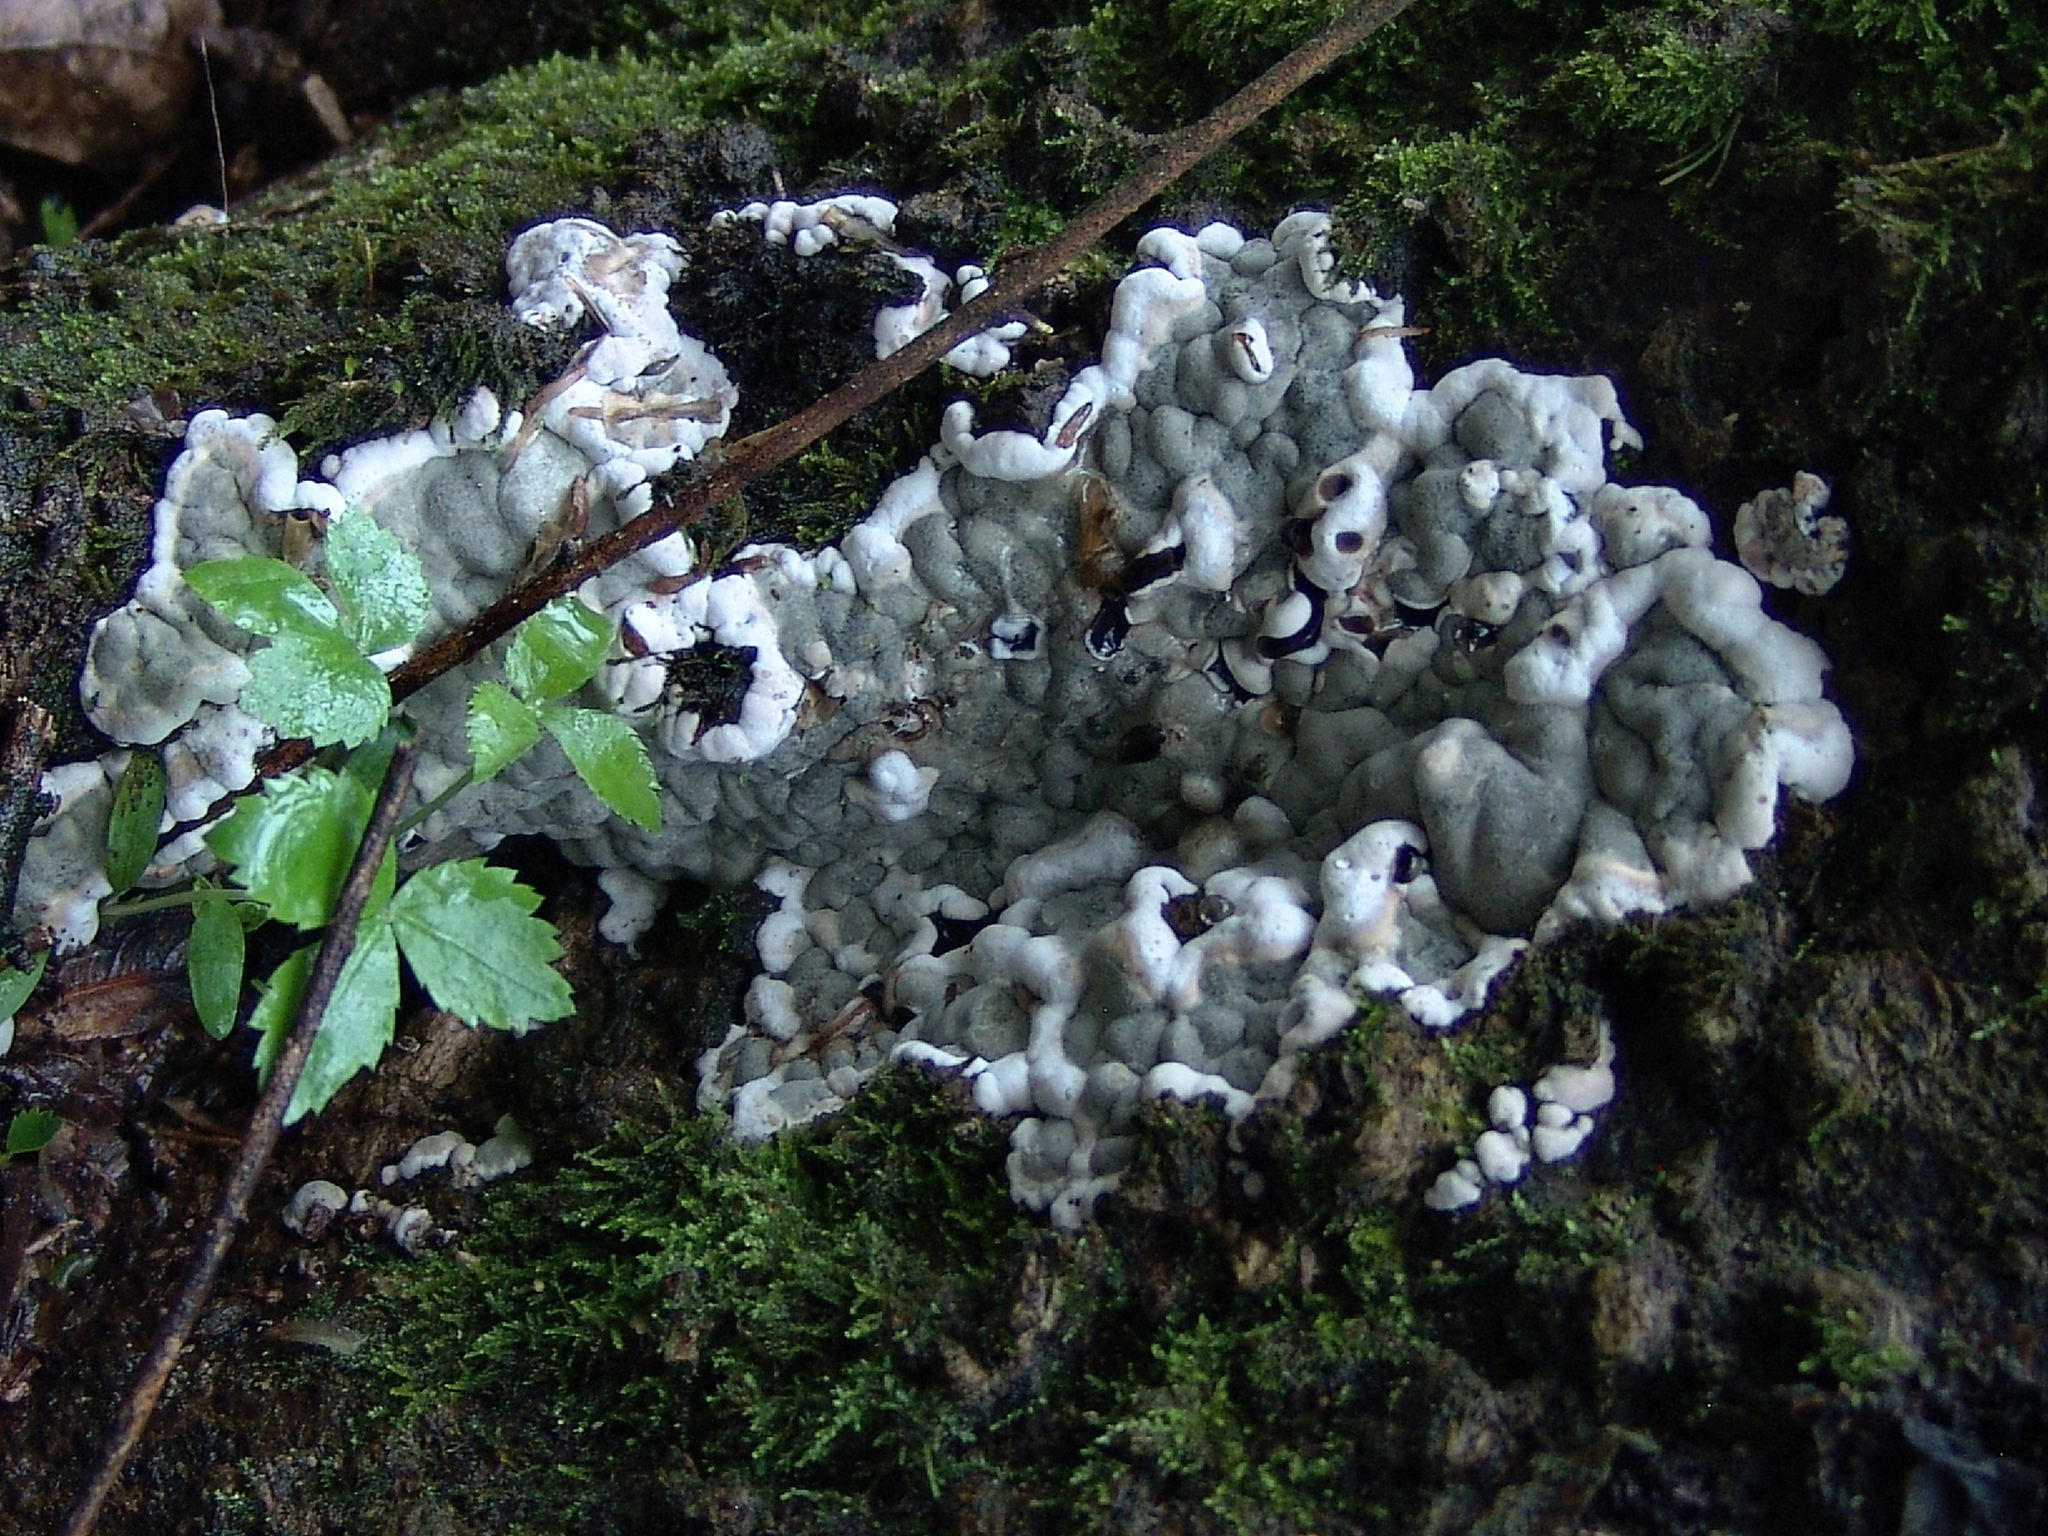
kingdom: Fungi
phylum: Ascomycota
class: Sordariomycetes
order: Xylariales
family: Xylariaceae
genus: Kretzschmaria
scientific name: Kretzschmaria deusta
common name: Brittle cinder
